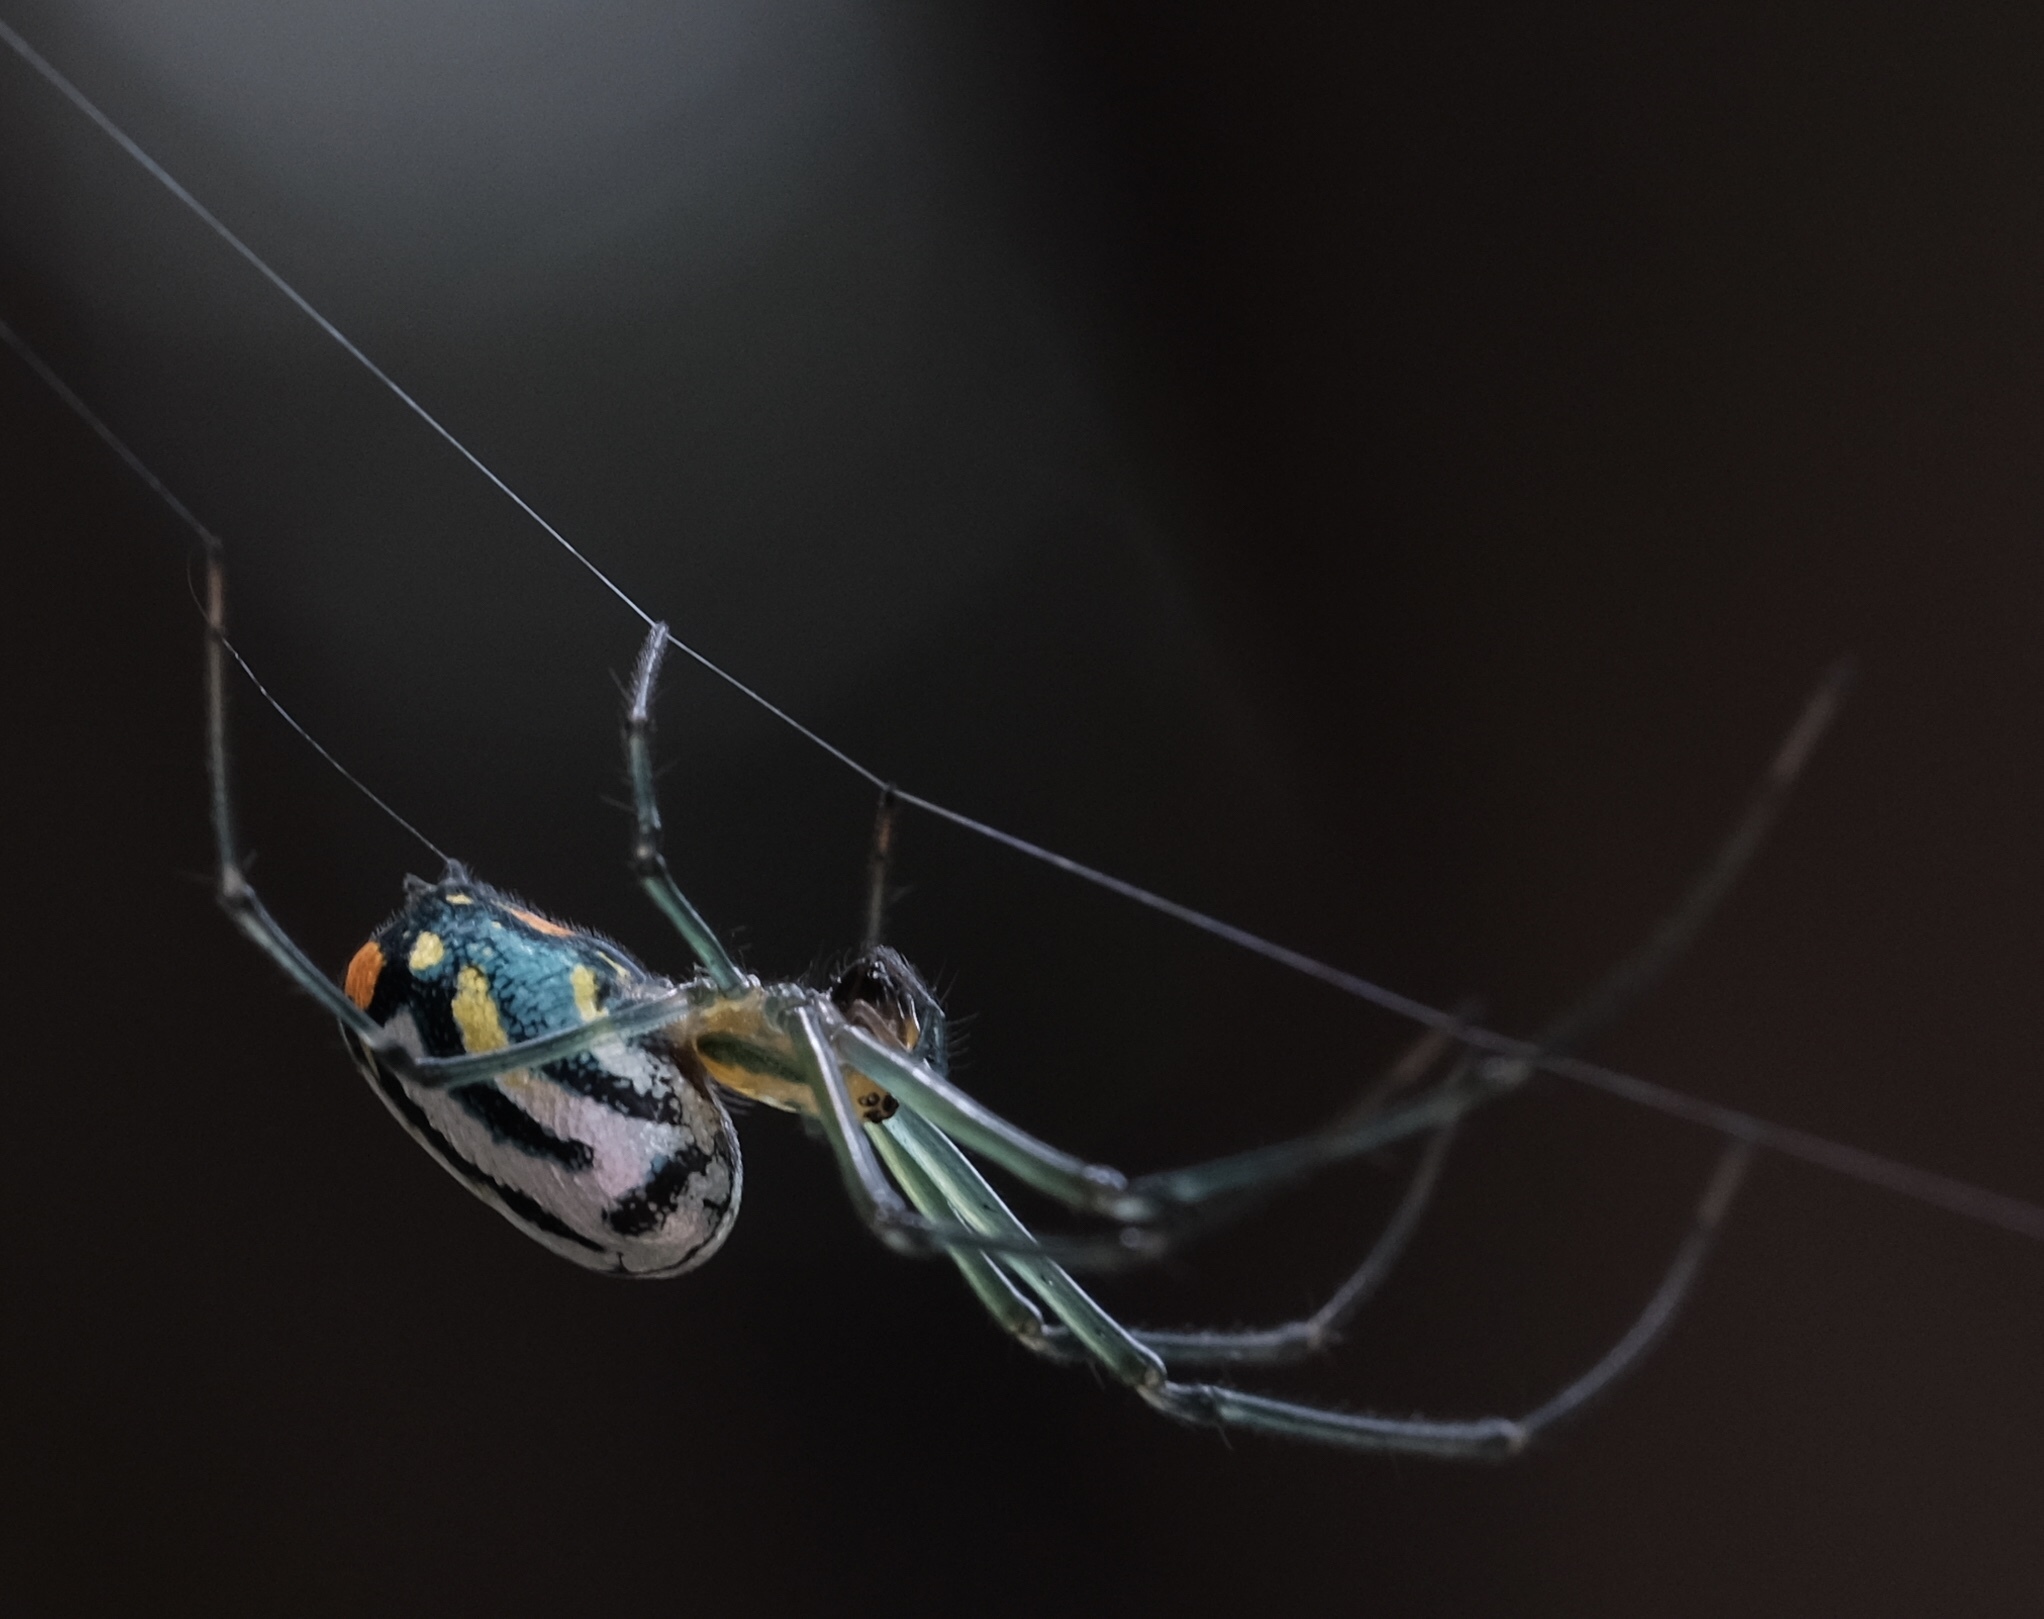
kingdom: Animalia
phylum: Arthropoda
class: Arachnida
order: Araneae
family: Tetragnathidae
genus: Leucauge
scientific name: Leucauge argyrobapta
